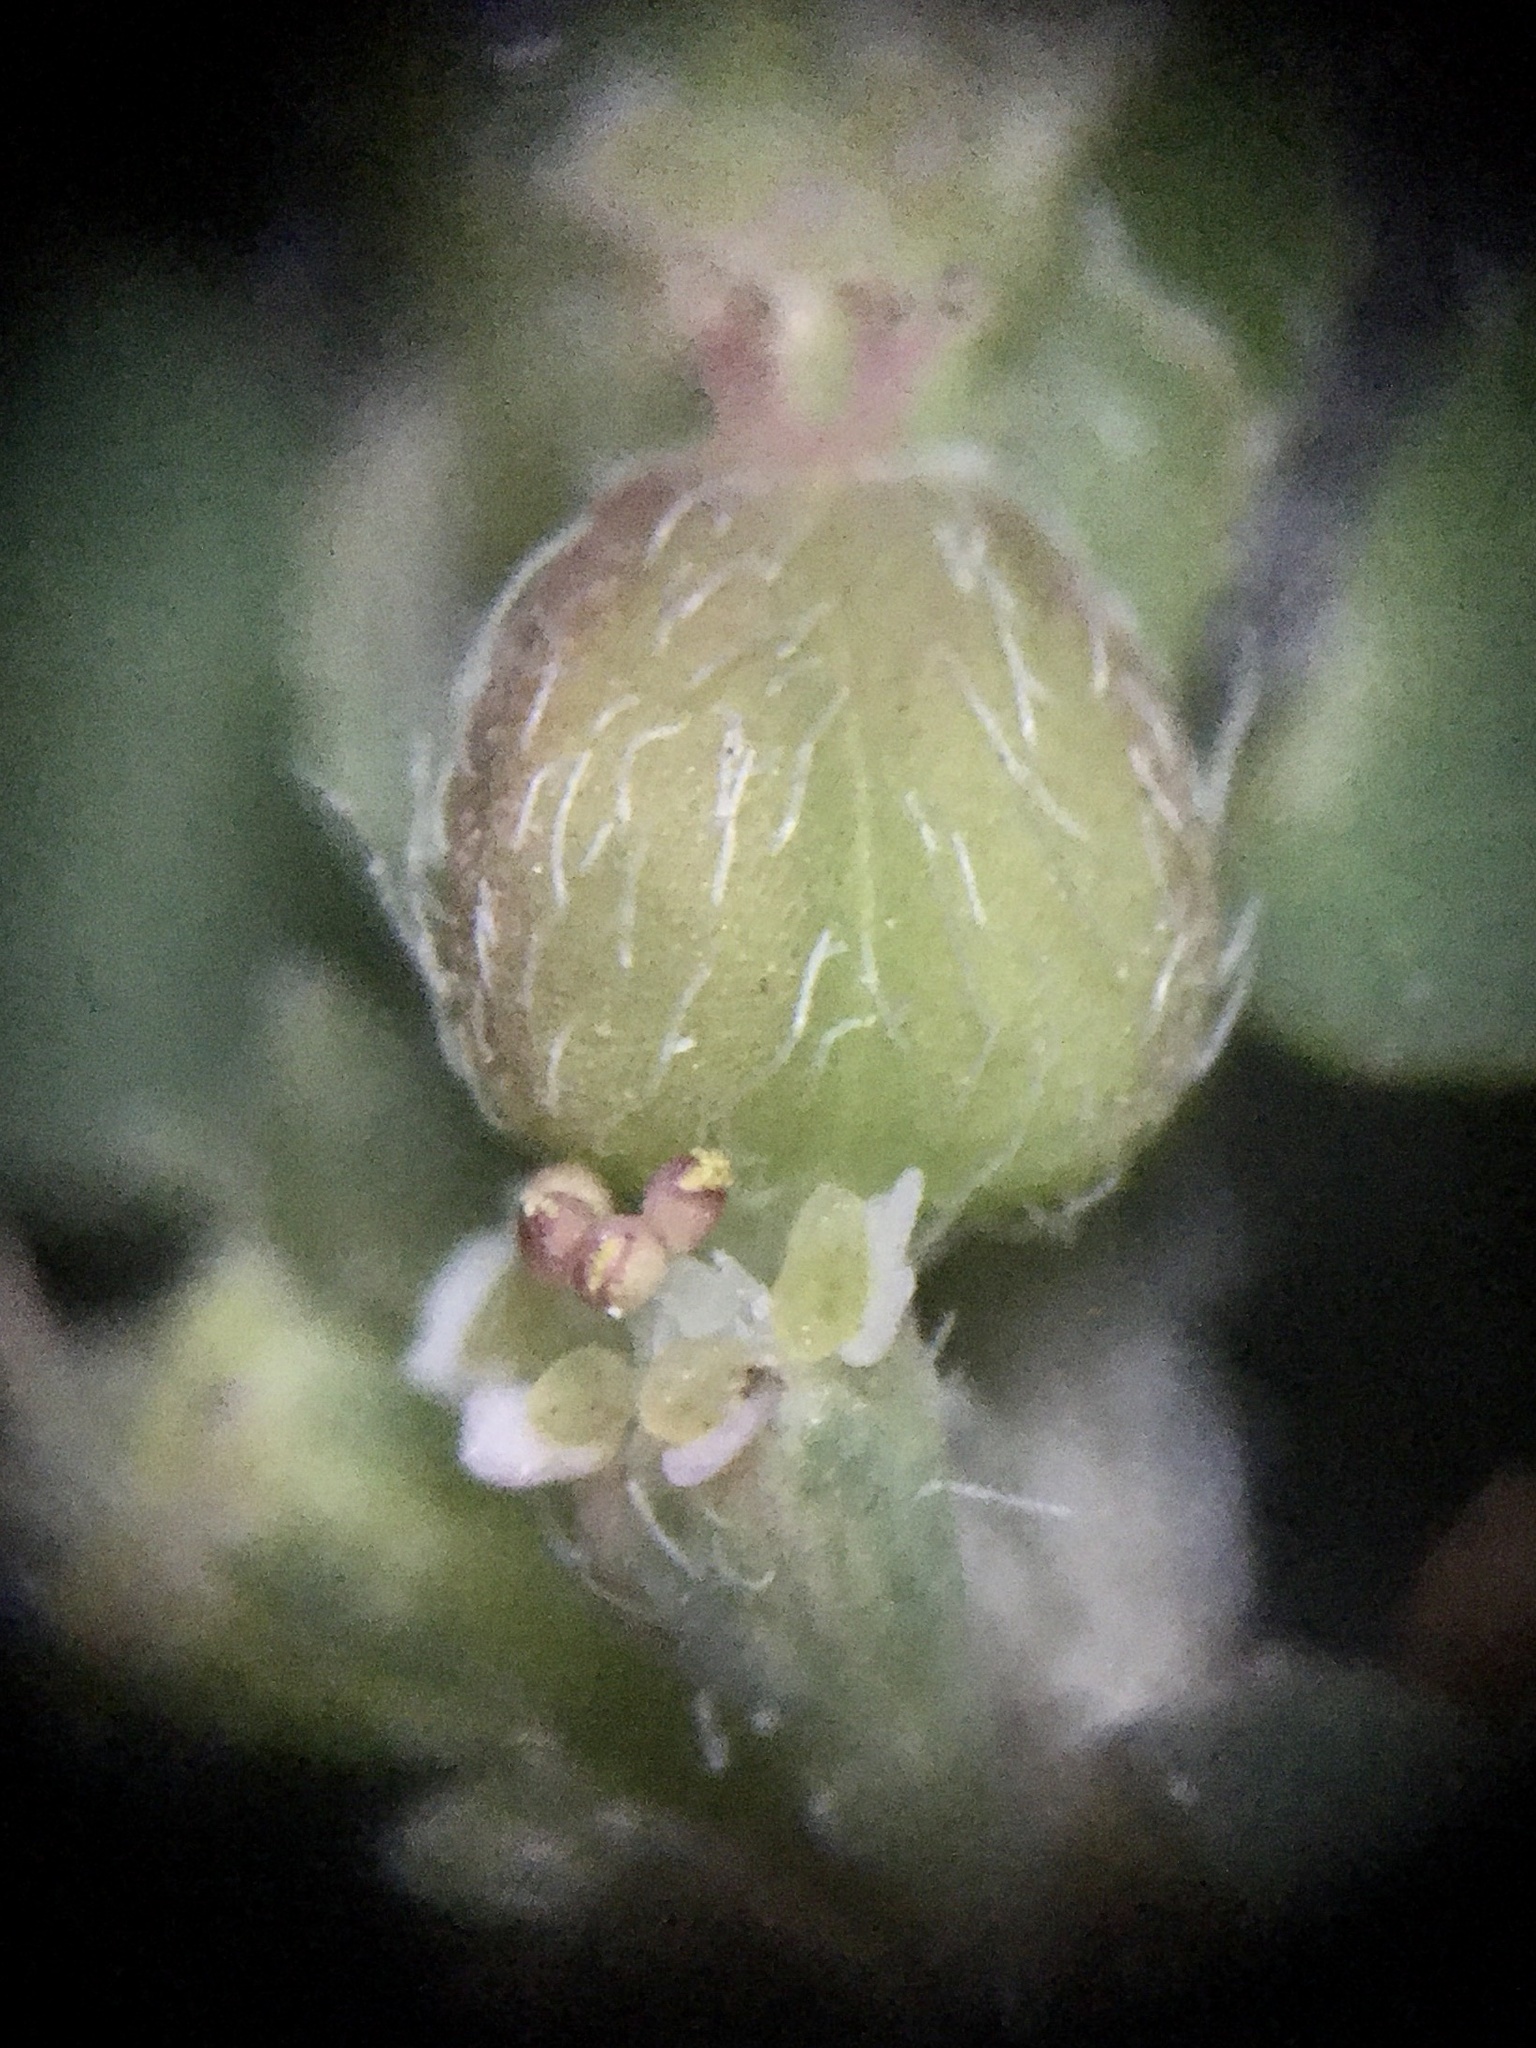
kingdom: Plantae
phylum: Tracheophyta
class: Magnoliopsida
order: Malpighiales
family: Euphorbiaceae
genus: Euphorbia
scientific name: Euphorbia maculata
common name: Spotted spurge
